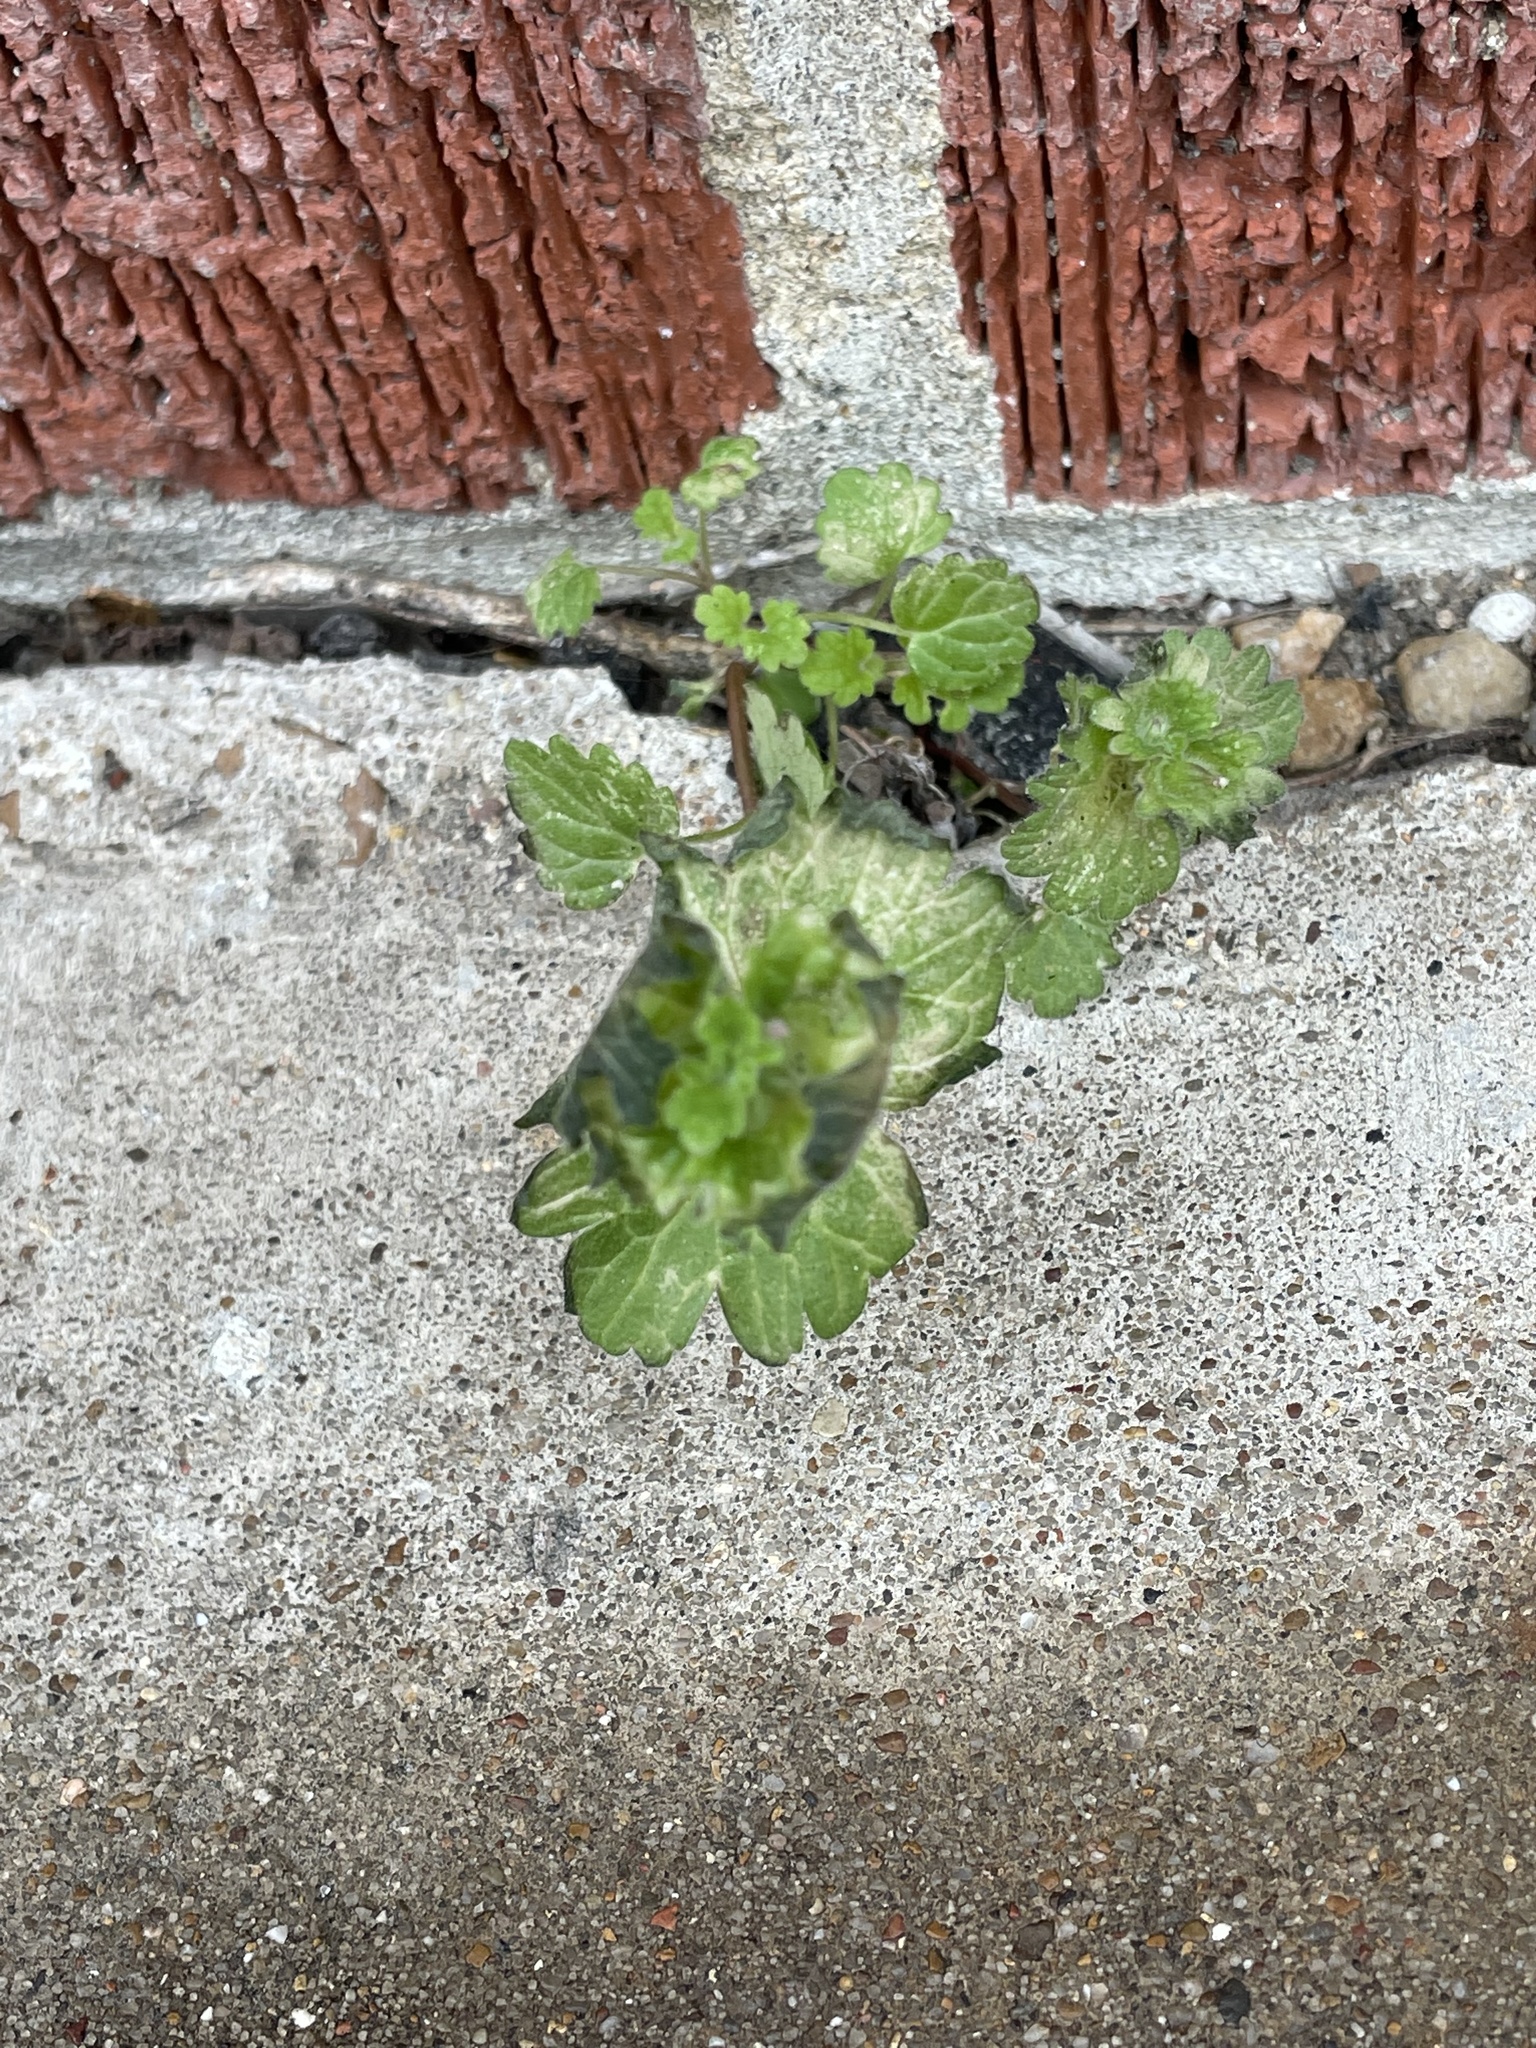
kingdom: Plantae
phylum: Tracheophyta
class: Magnoliopsida
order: Lamiales
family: Lamiaceae
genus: Lamium
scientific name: Lamium amplexicaule
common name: Henbit dead-nettle
